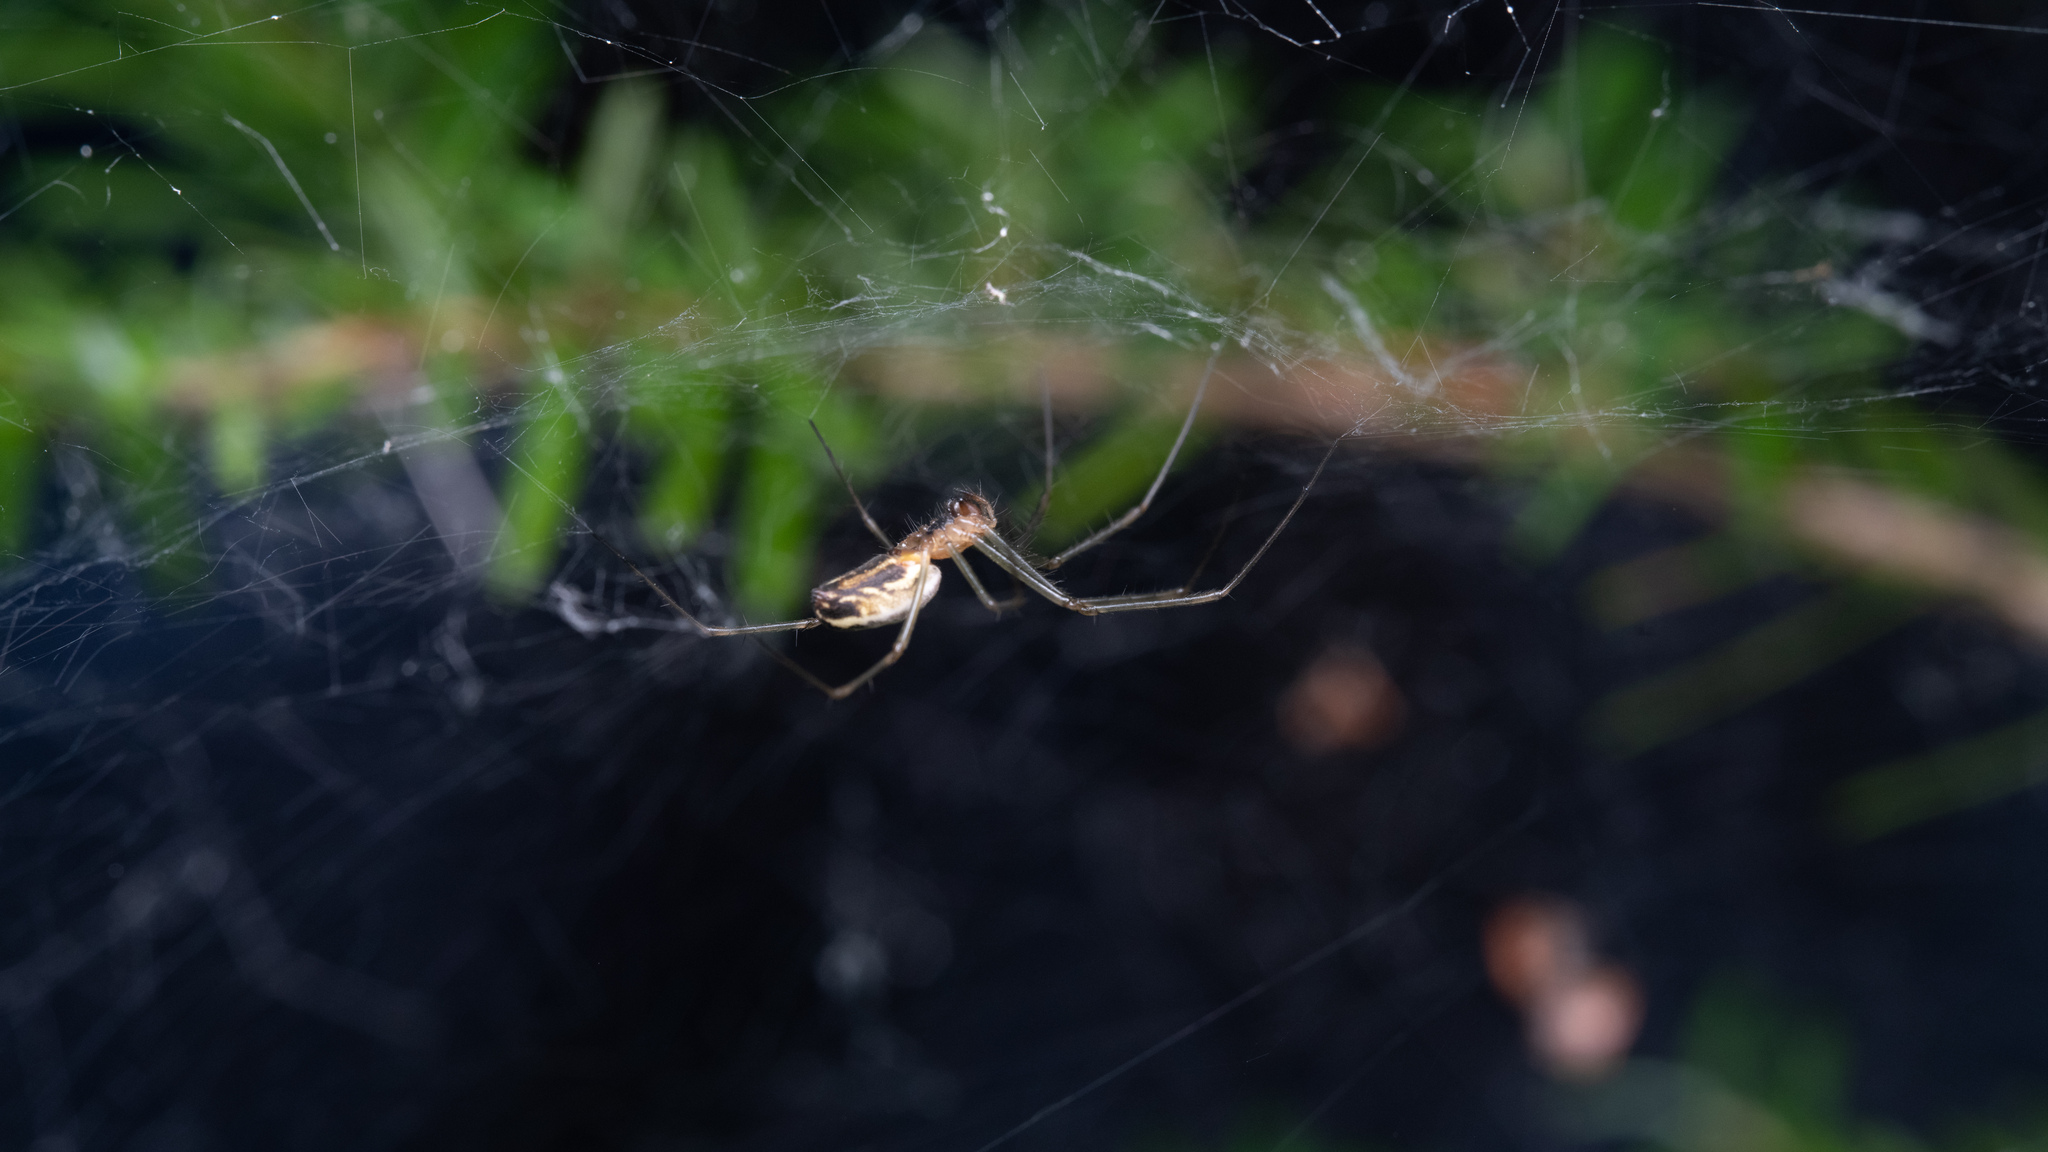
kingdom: Animalia
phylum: Arthropoda
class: Arachnida
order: Araneae
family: Linyphiidae
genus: Neriene
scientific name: Neriene litigiosa
